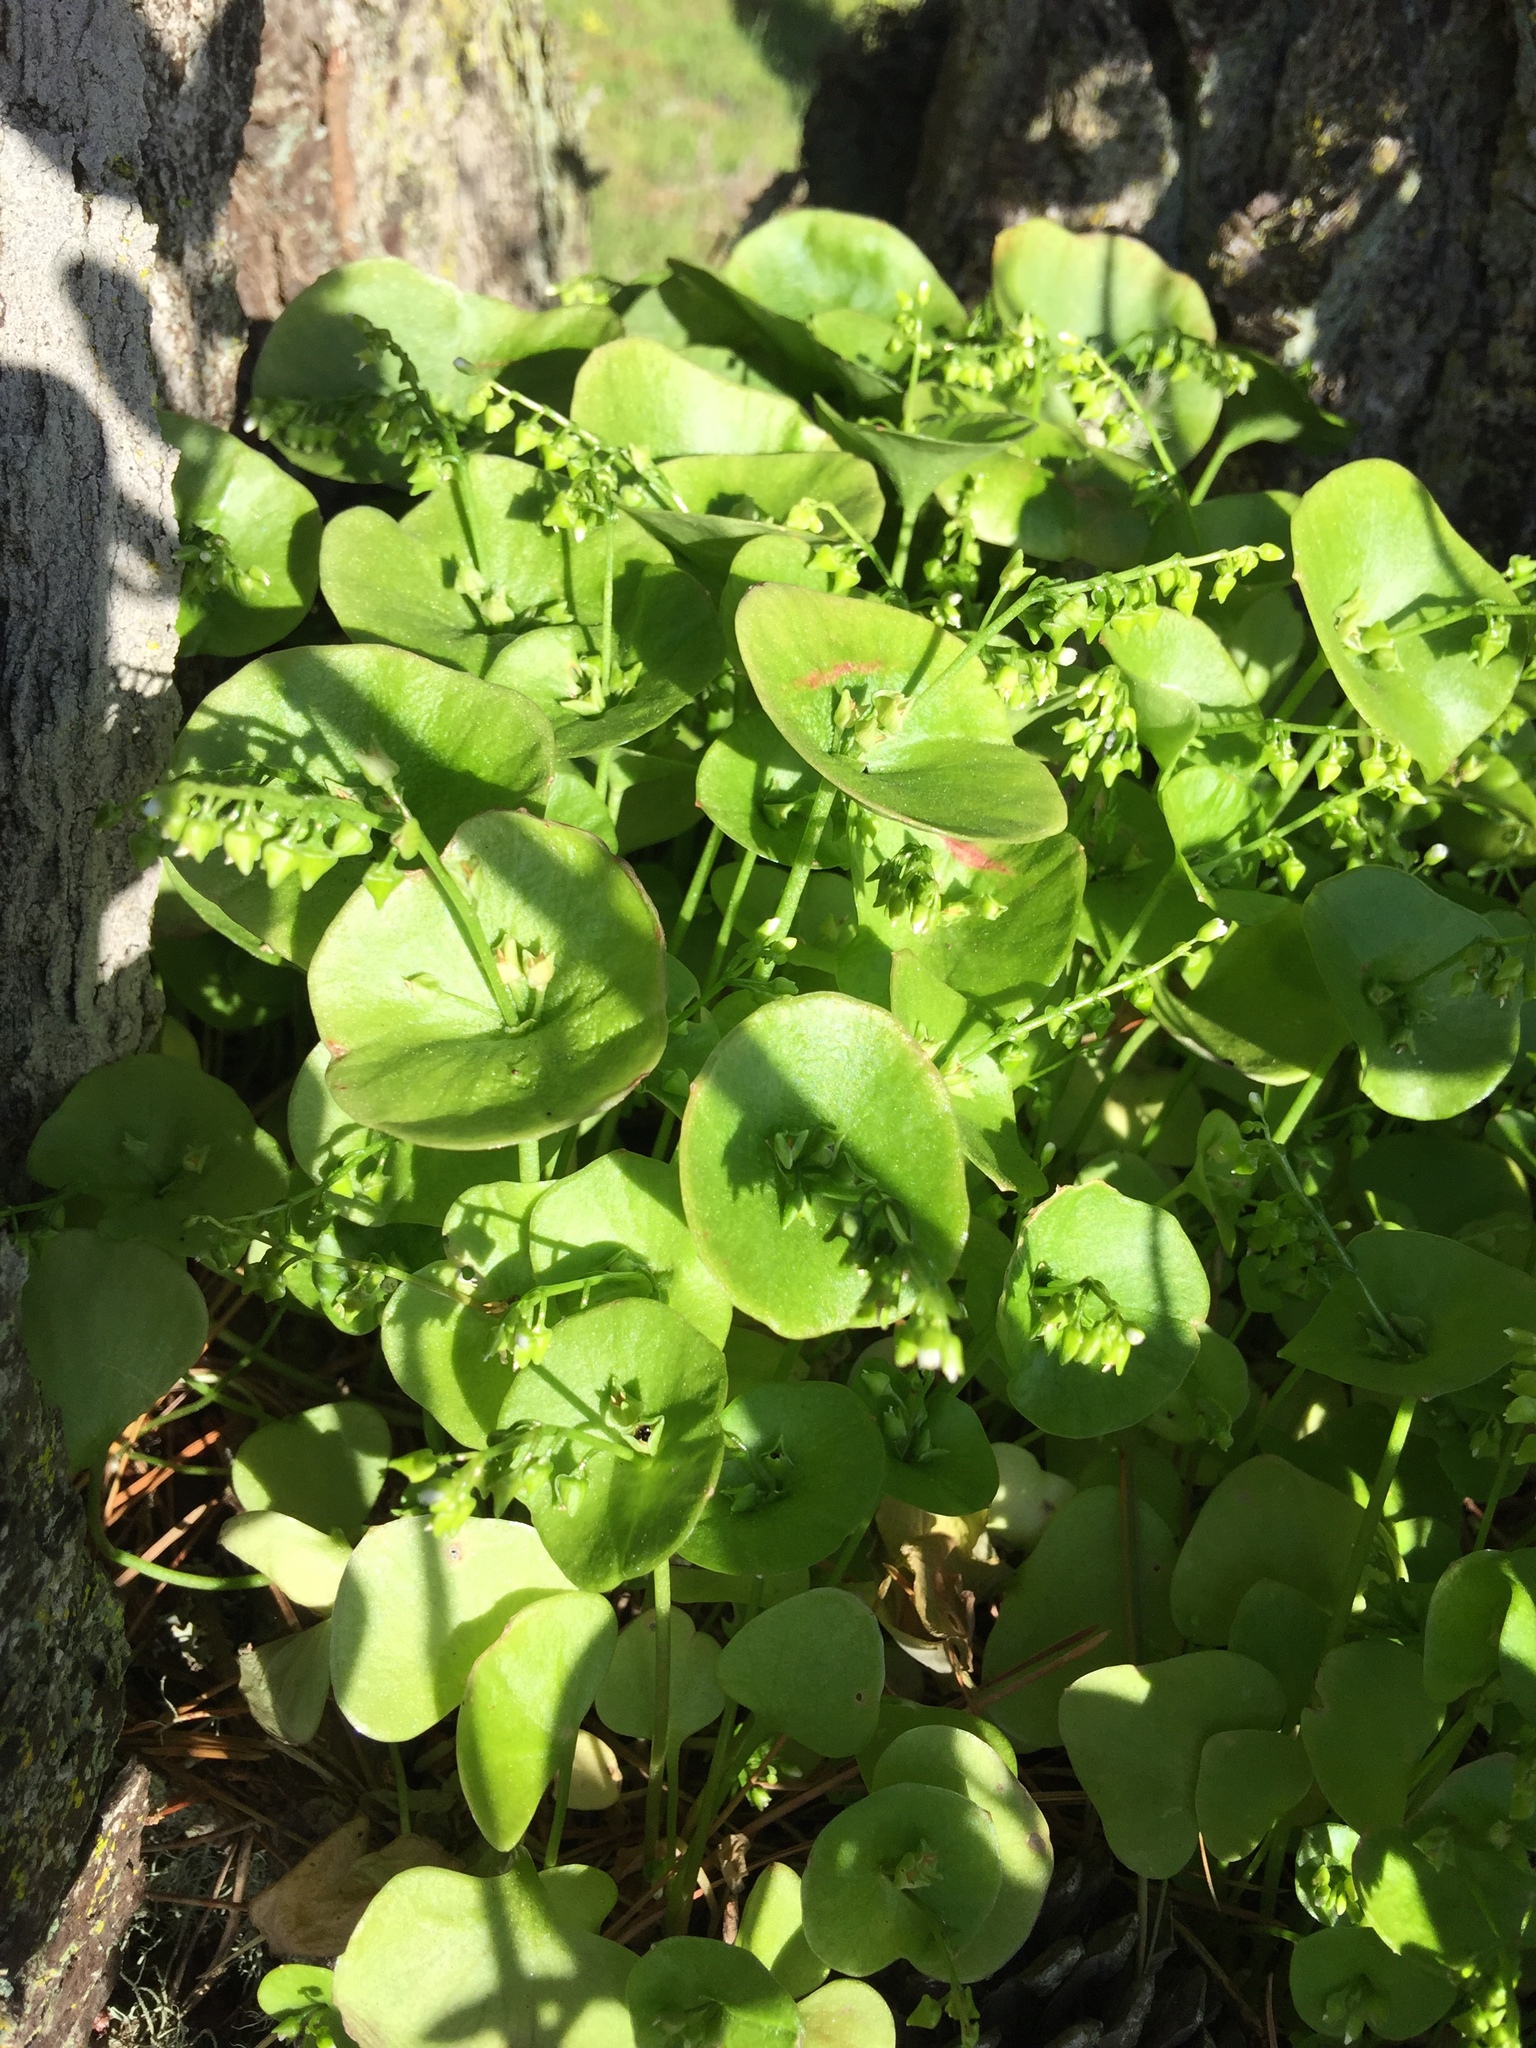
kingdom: Plantae
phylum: Tracheophyta
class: Magnoliopsida
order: Caryophyllales
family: Montiaceae
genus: Claytonia
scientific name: Claytonia perfoliata
